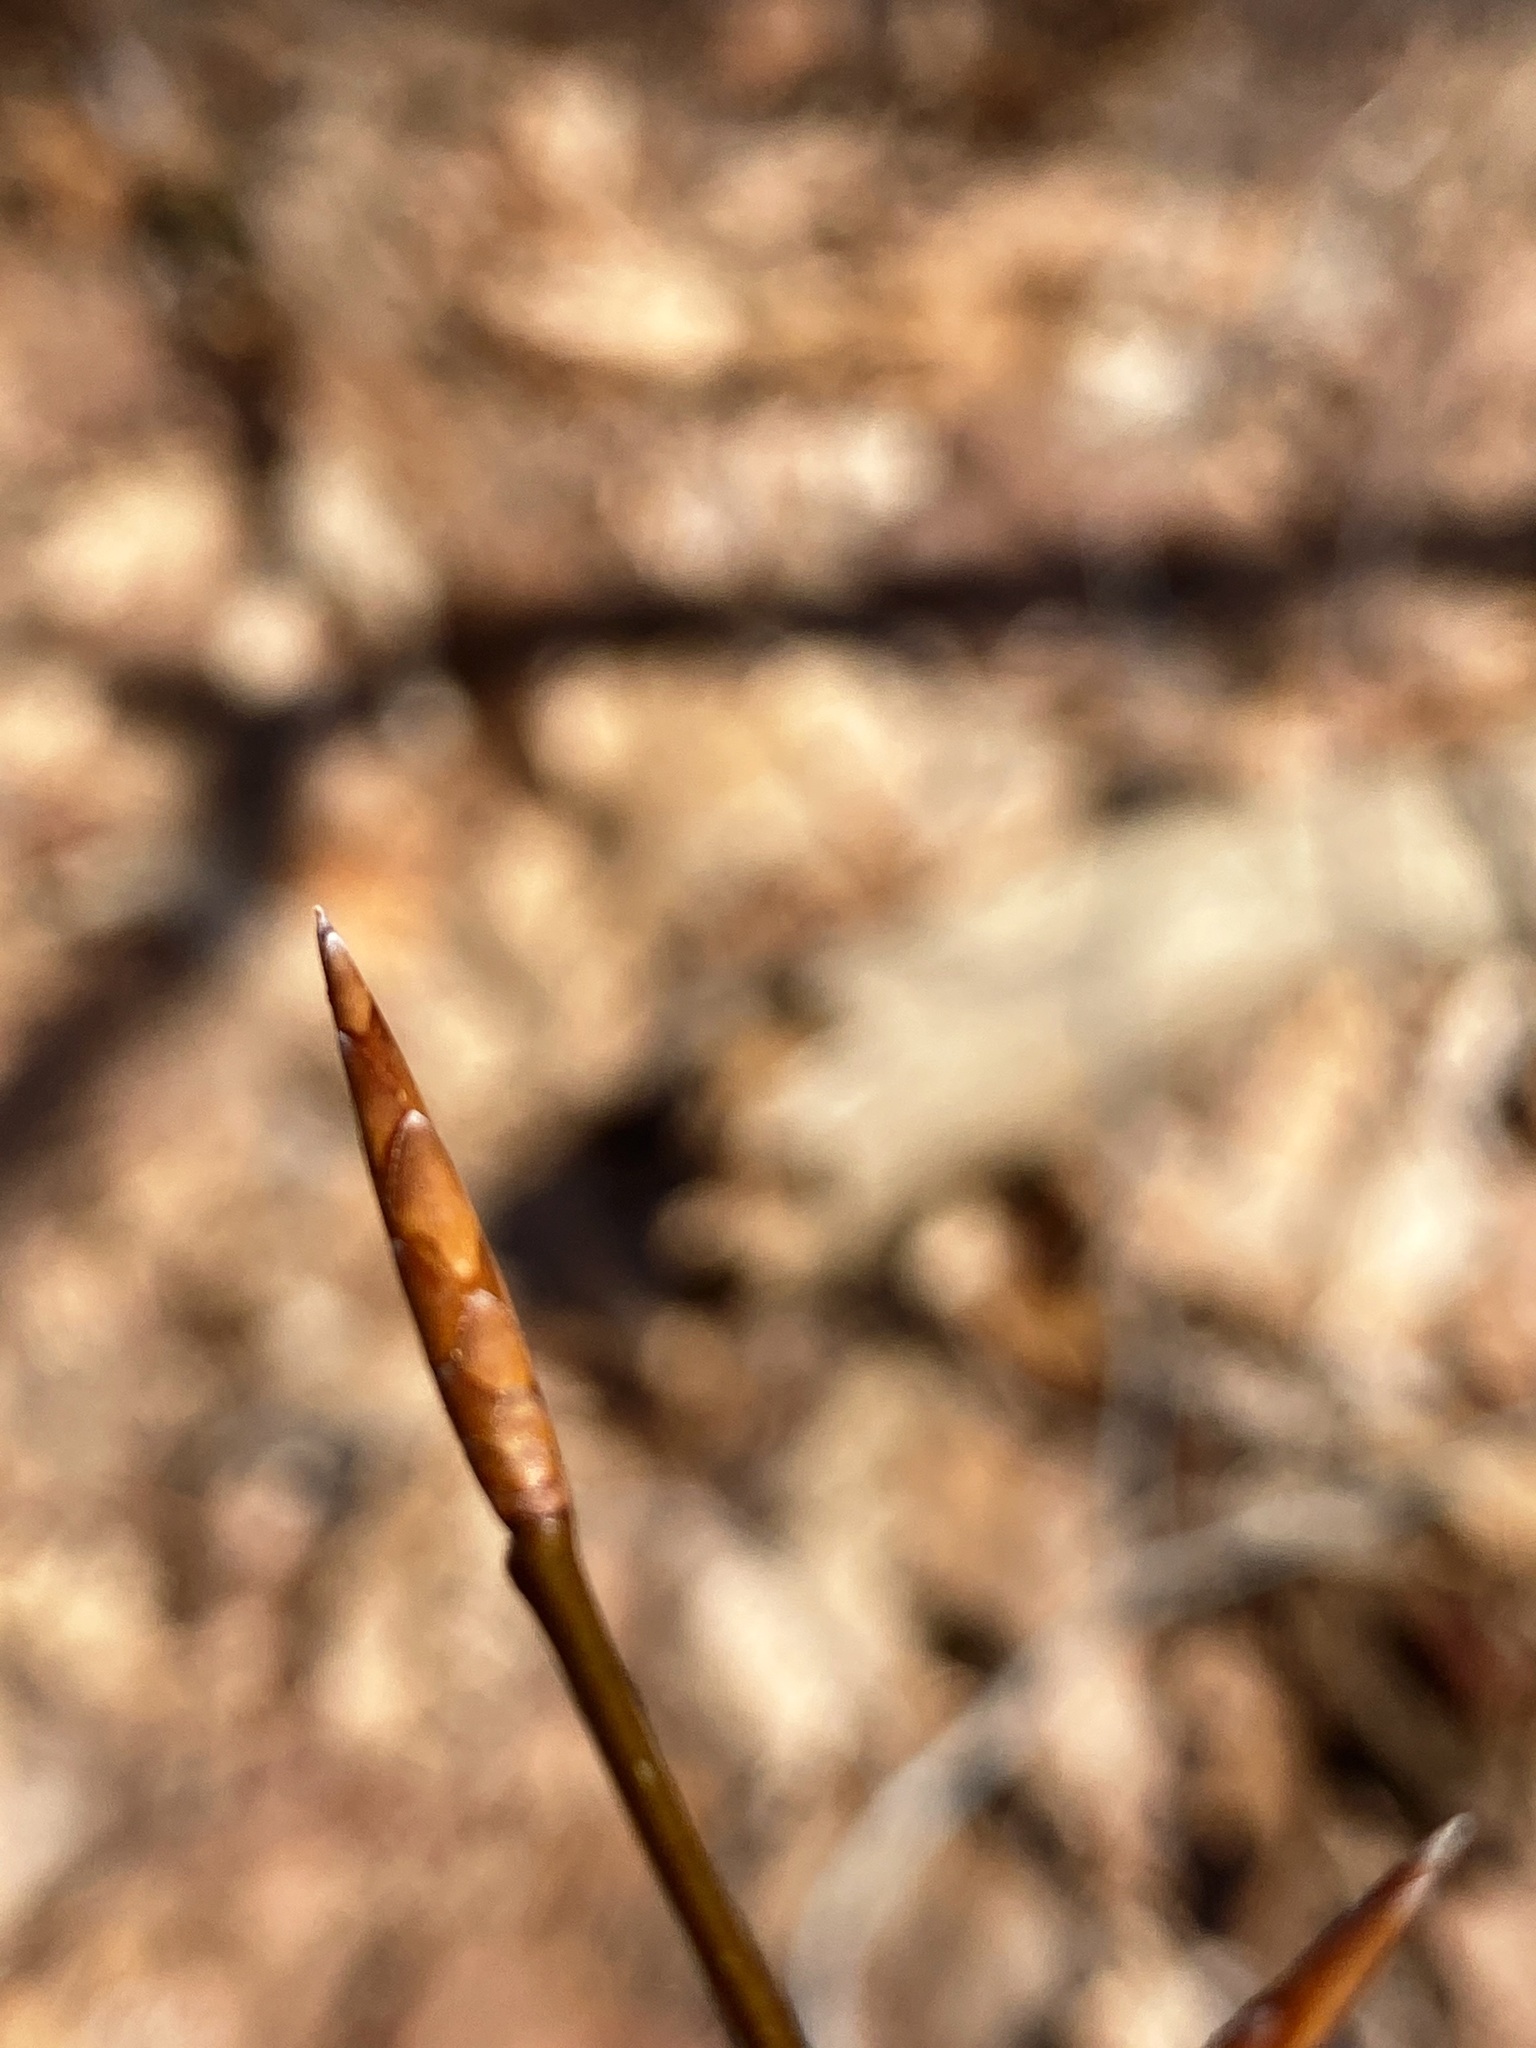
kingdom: Plantae
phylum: Tracheophyta
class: Magnoliopsida
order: Fagales
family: Fagaceae
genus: Fagus
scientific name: Fagus grandifolia
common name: American beech
